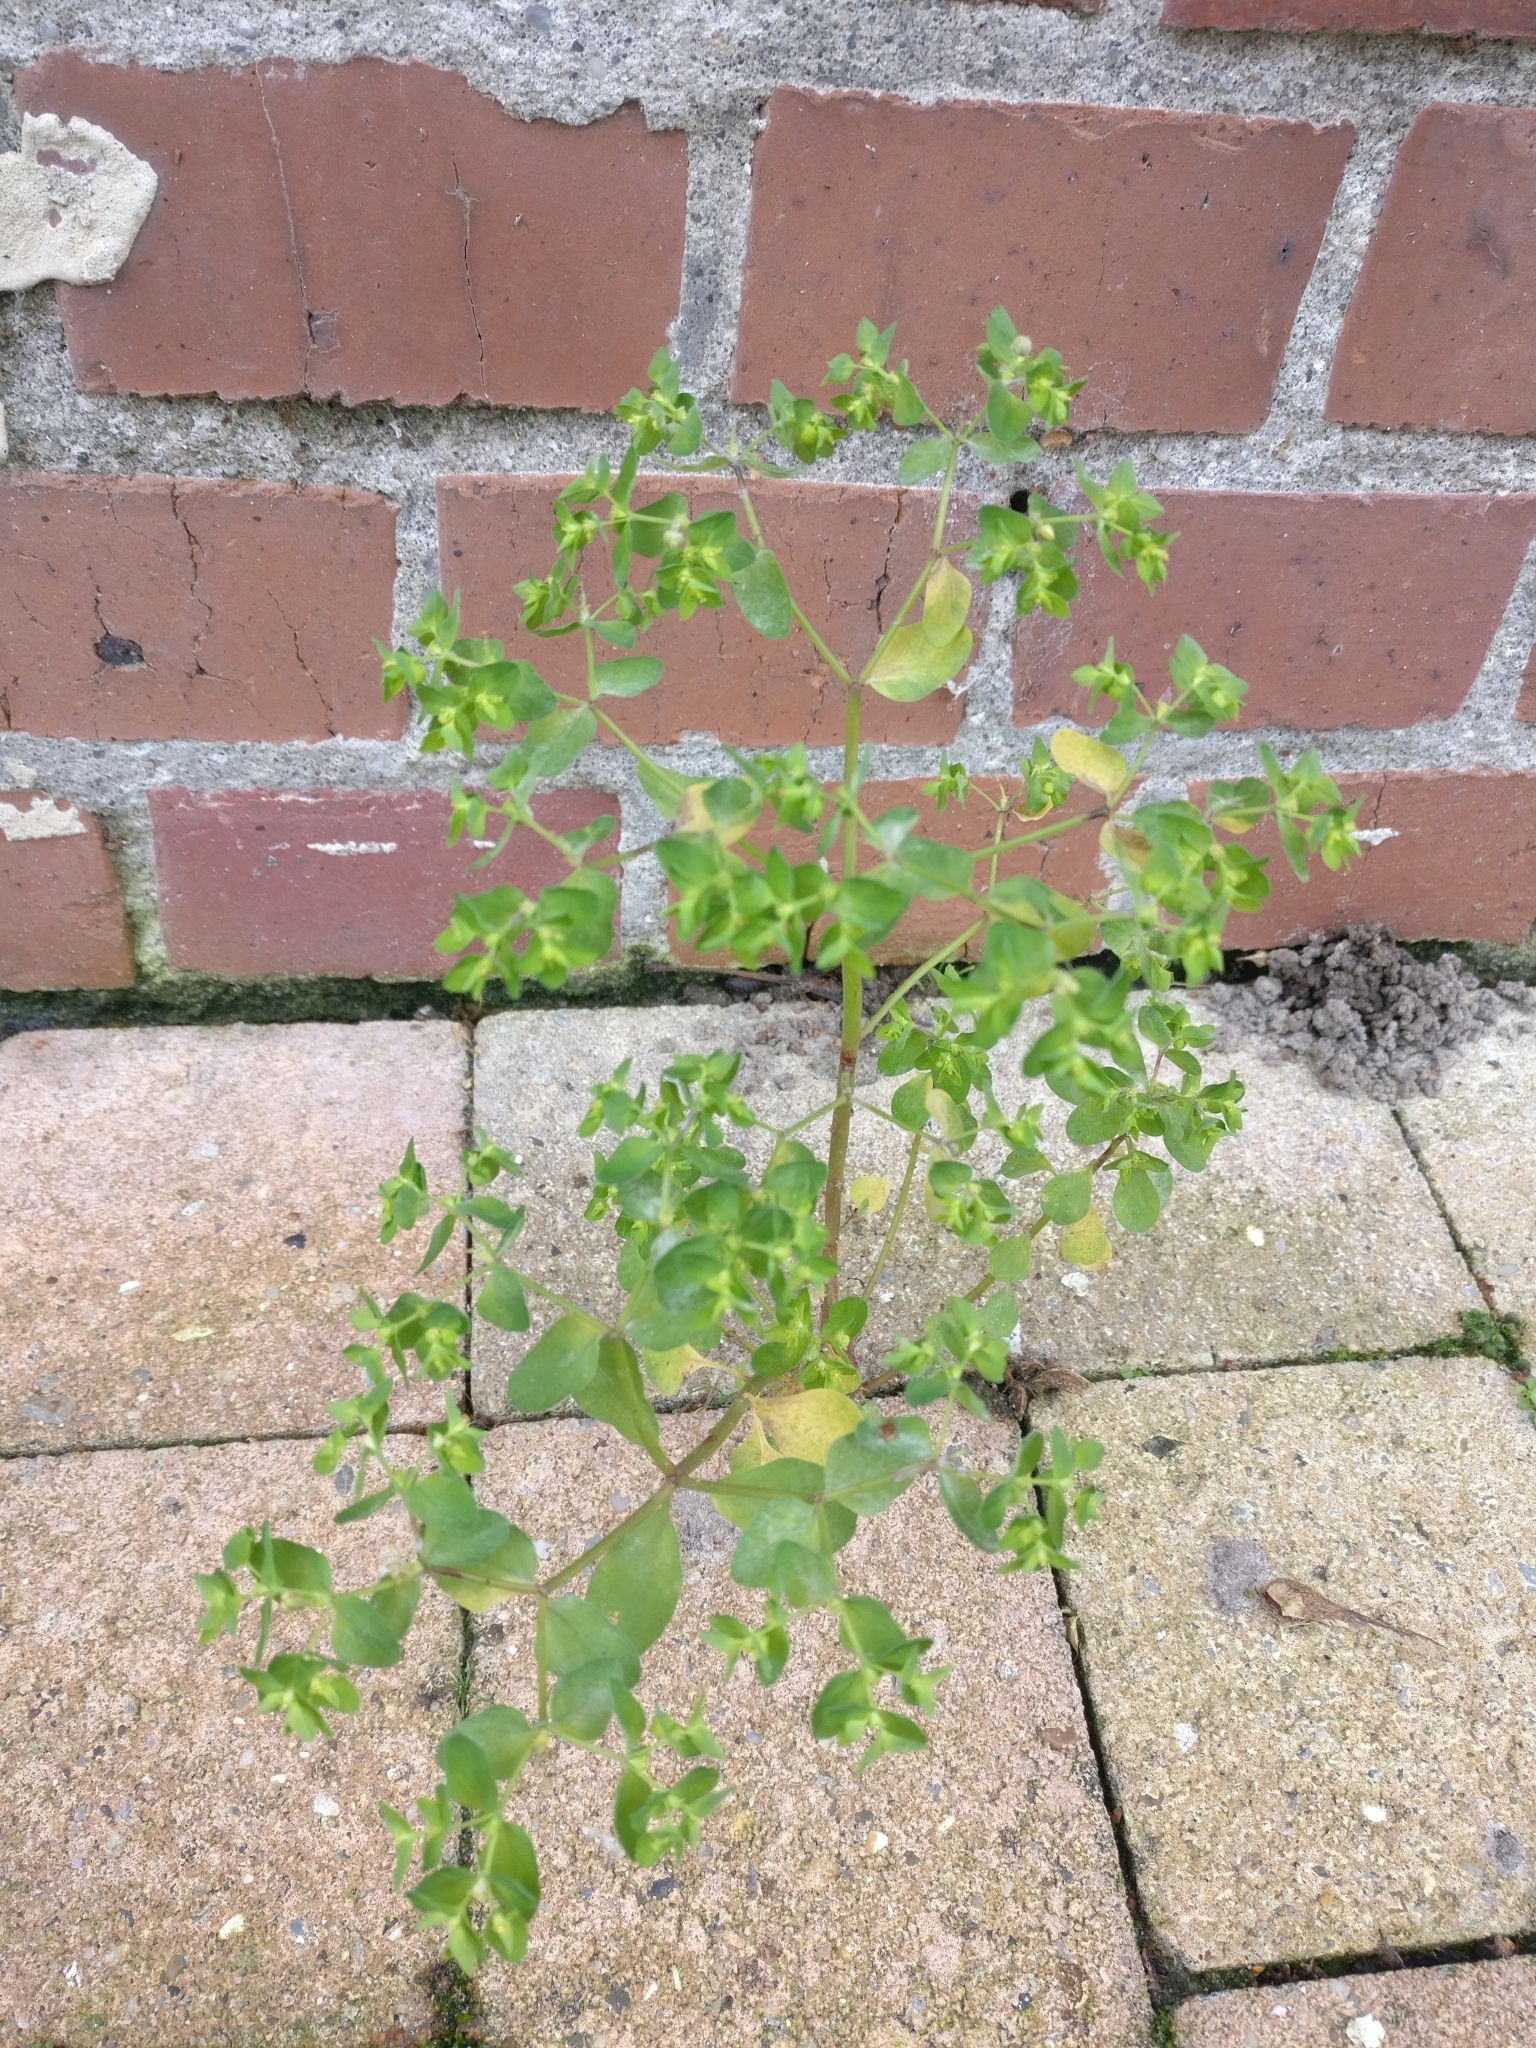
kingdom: Plantae
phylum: Tracheophyta
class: Magnoliopsida
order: Malpighiales
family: Euphorbiaceae
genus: Euphorbia
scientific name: Euphorbia peplus
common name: Petty spurge
